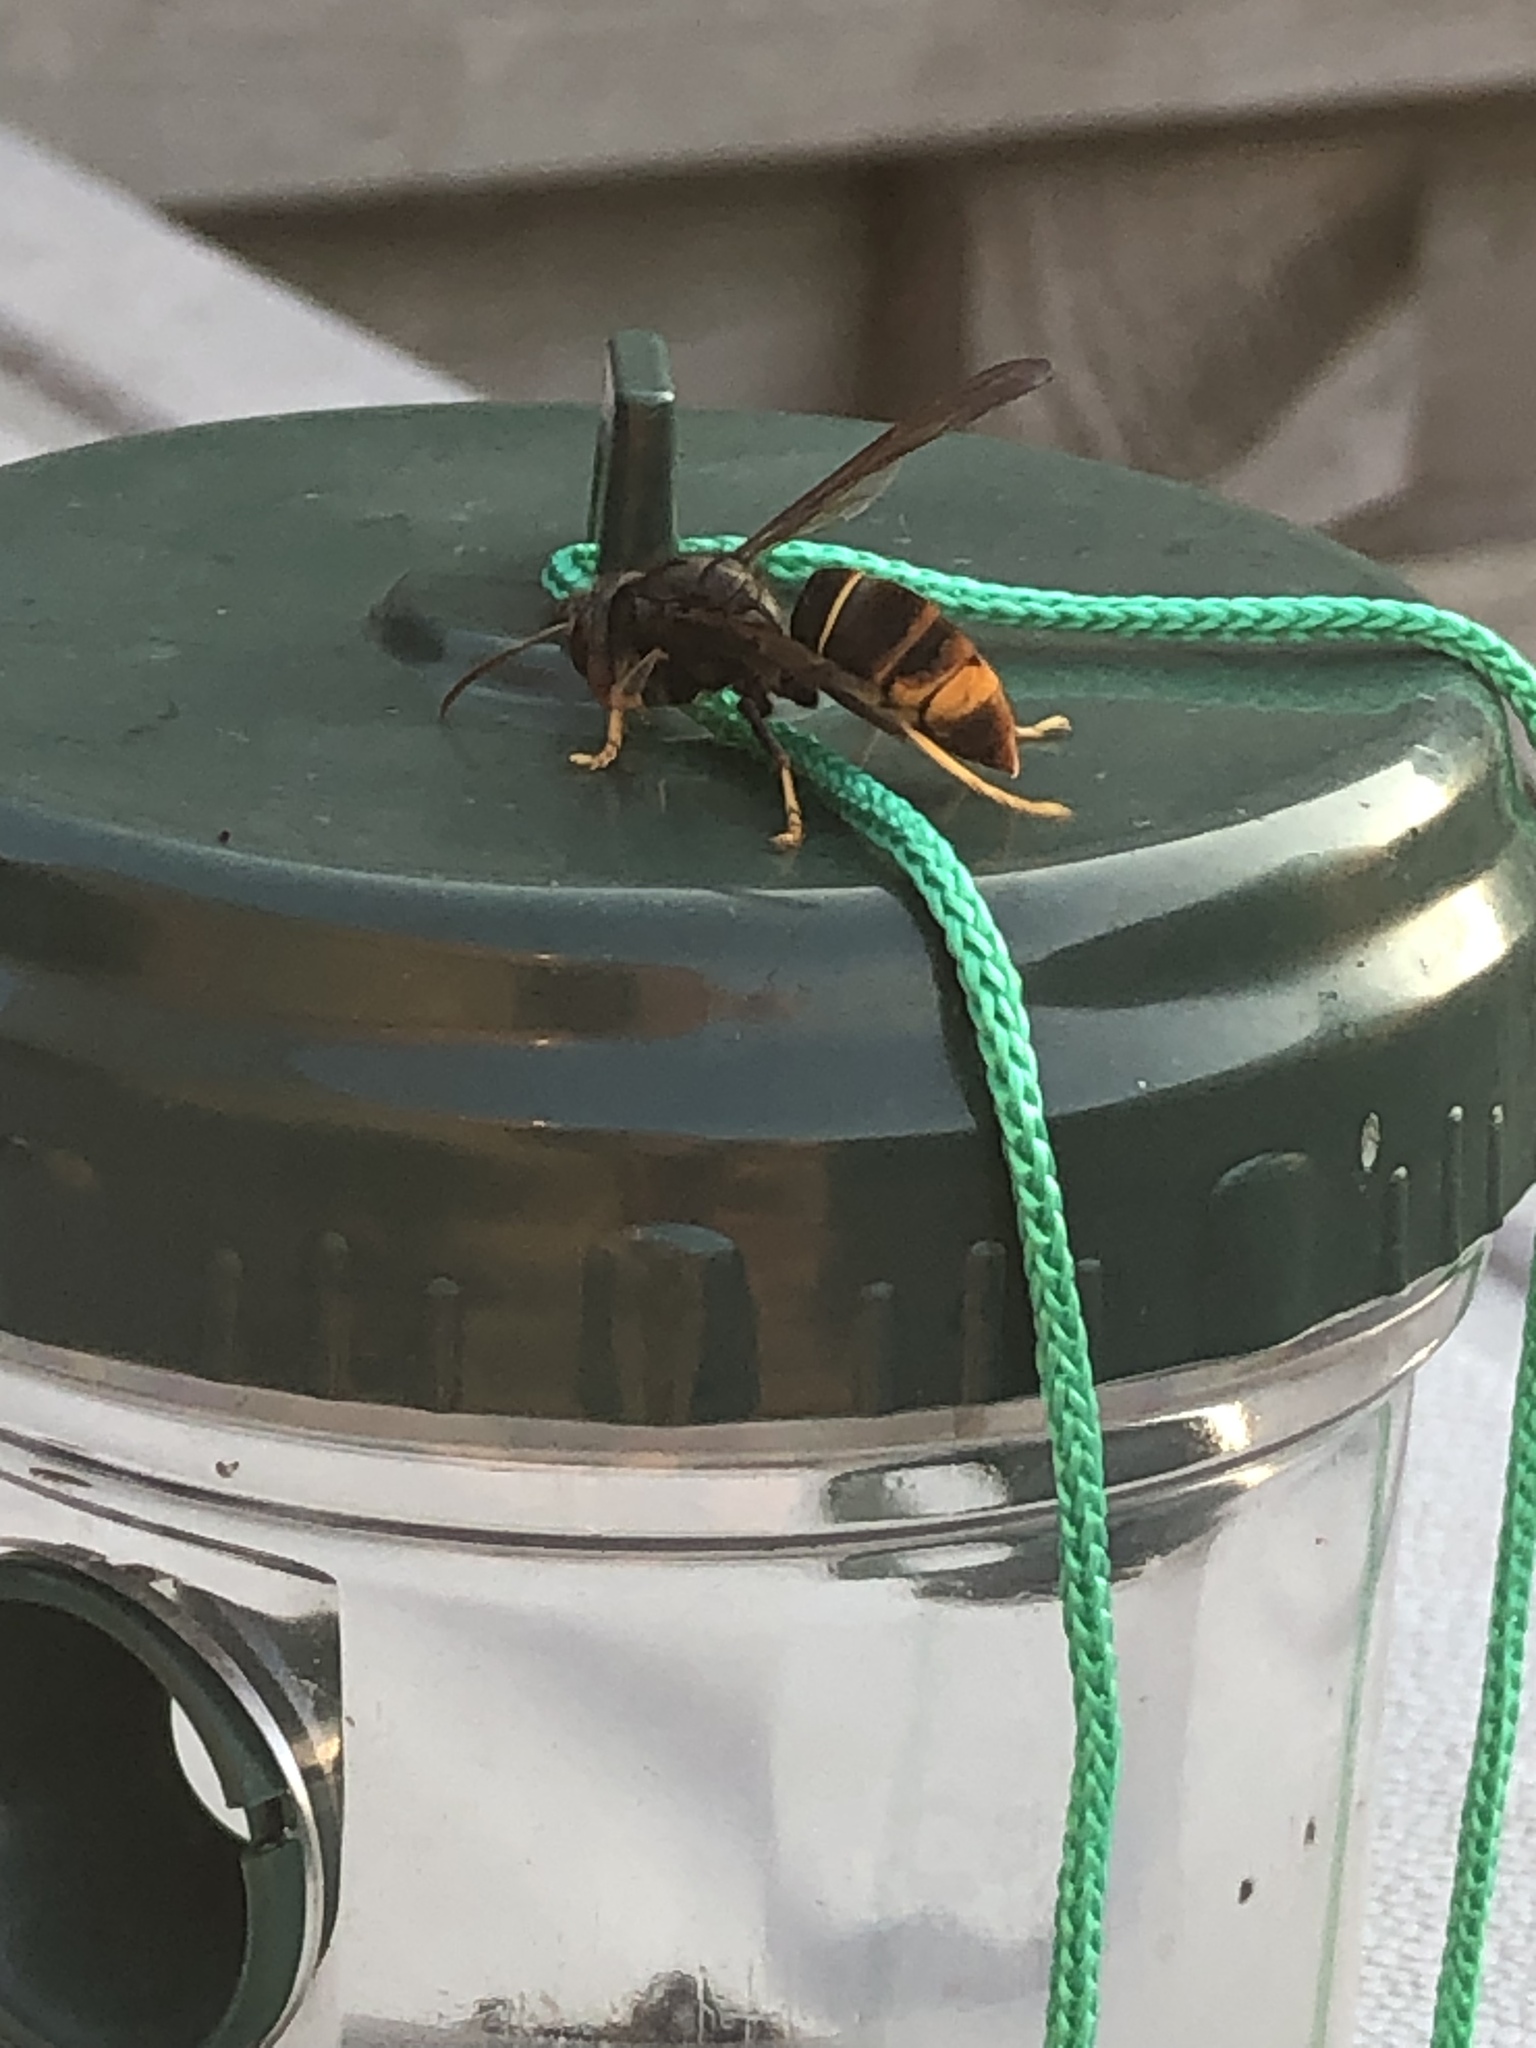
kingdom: Animalia
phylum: Arthropoda
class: Insecta
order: Hymenoptera
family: Vespidae
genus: Vespa
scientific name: Vespa velutina
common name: Asian hornet
